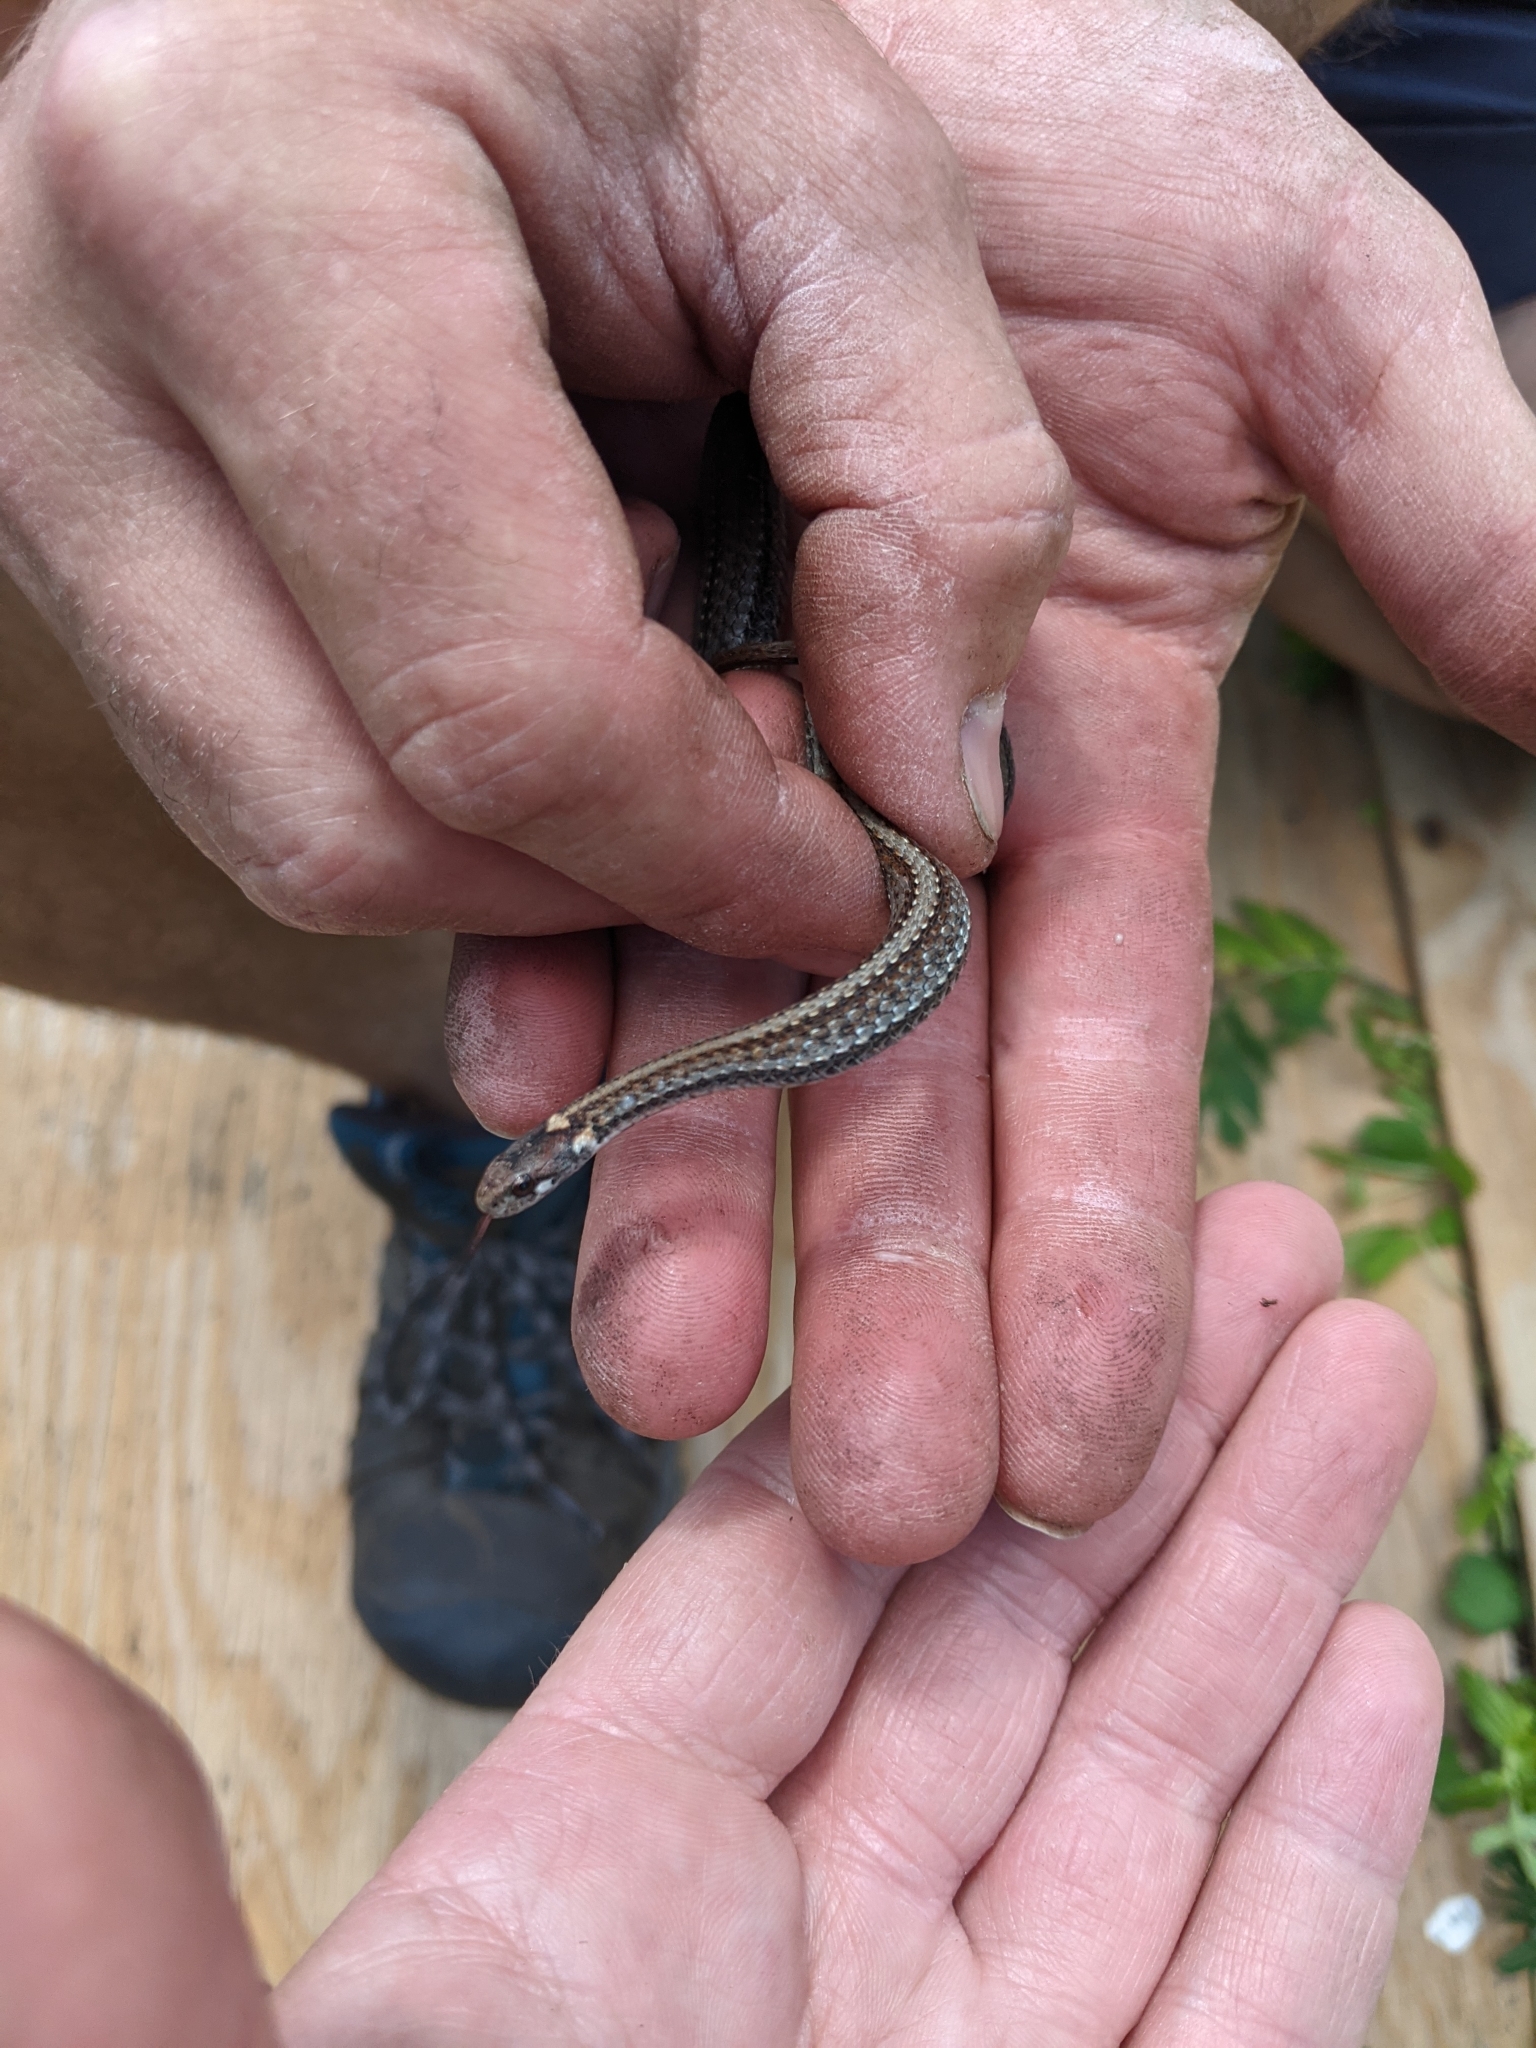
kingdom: Animalia
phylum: Chordata
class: Squamata
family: Colubridae
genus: Storeria
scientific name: Storeria occipitomaculata
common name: Redbelly snake
